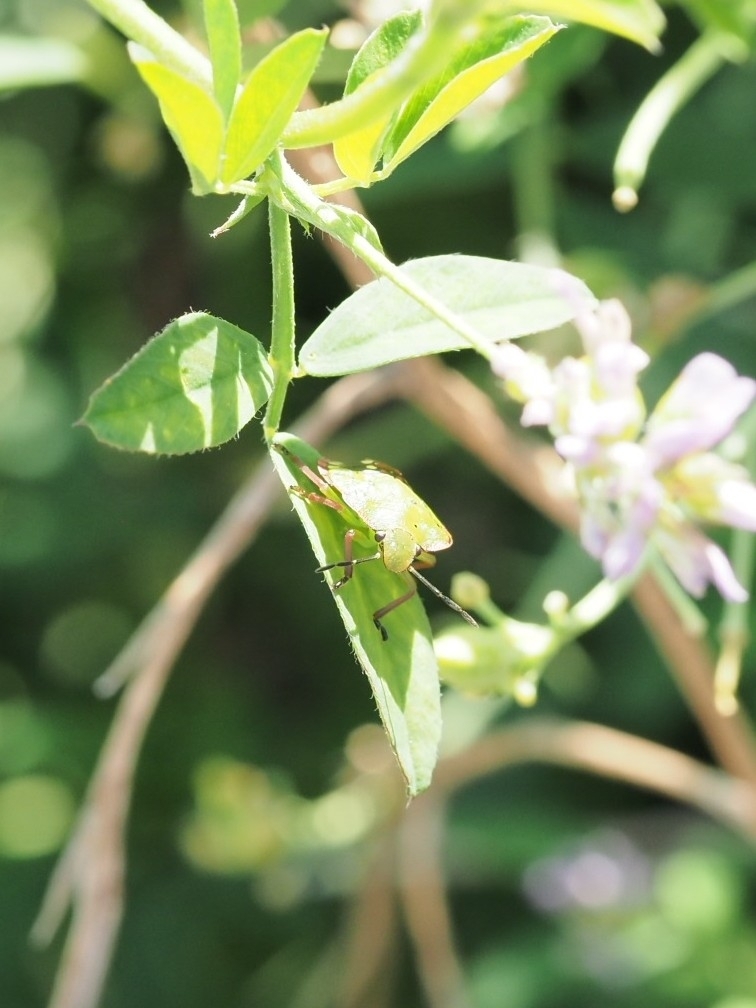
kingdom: Animalia
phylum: Arthropoda
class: Insecta
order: Hemiptera
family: Pentatomidae
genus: Nezara
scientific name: Nezara viridula
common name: Southern green stink bug
